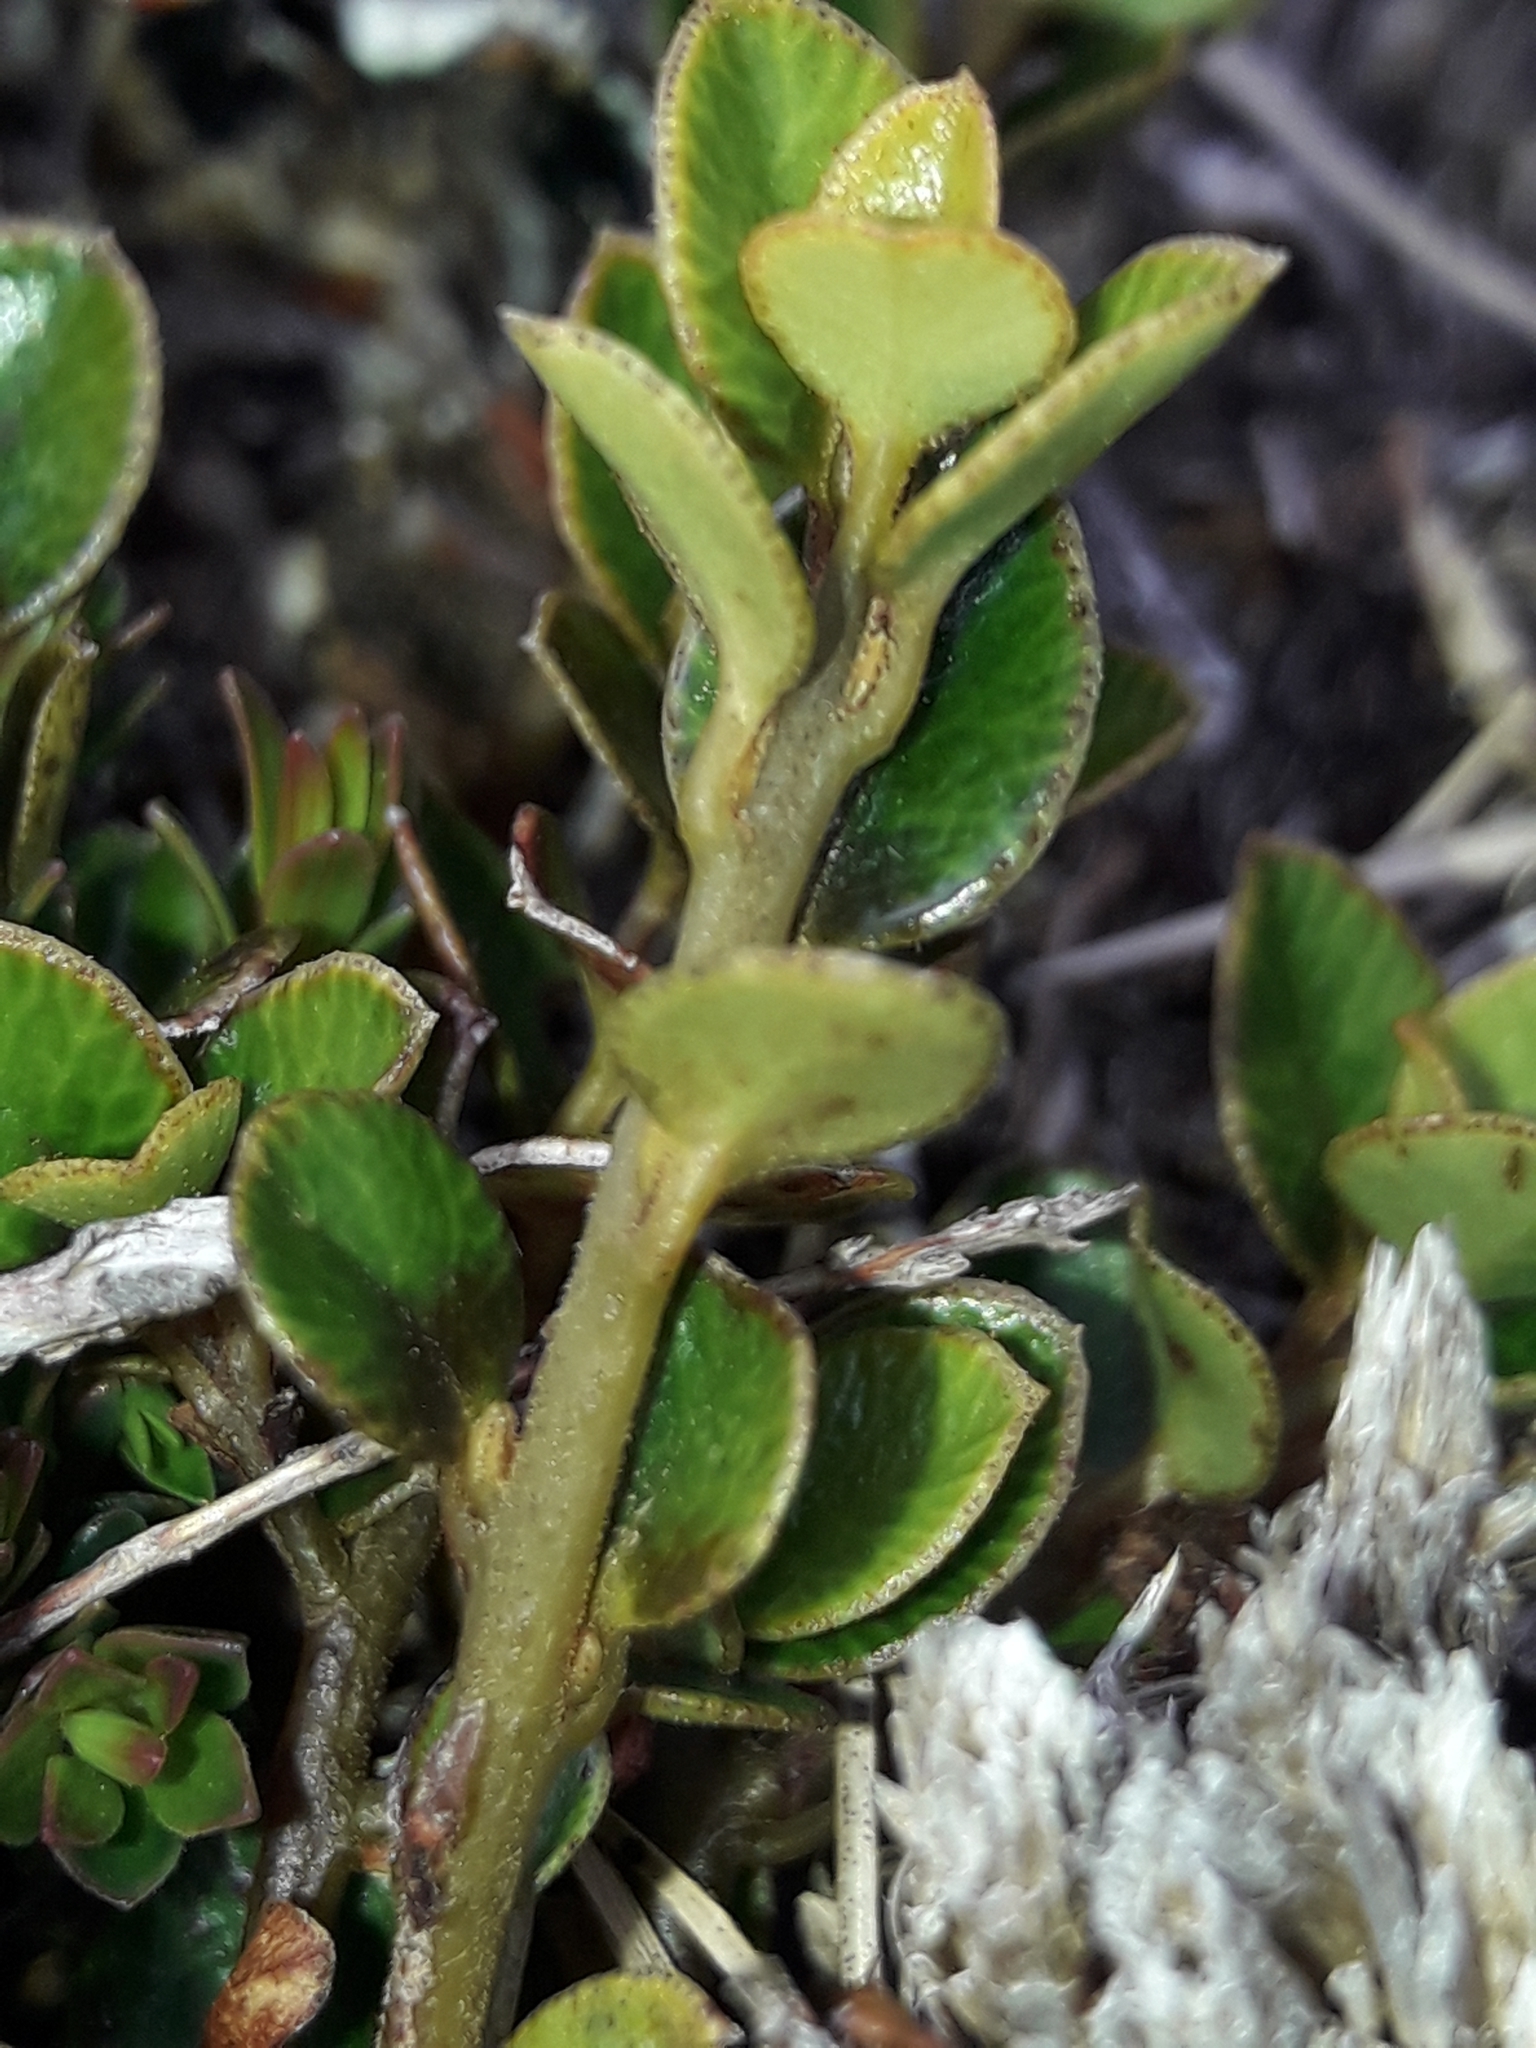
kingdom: Plantae
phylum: Tracheophyta
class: Magnoliopsida
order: Ericales
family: Primulaceae
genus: Myrsine
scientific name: Myrsine nummularia
